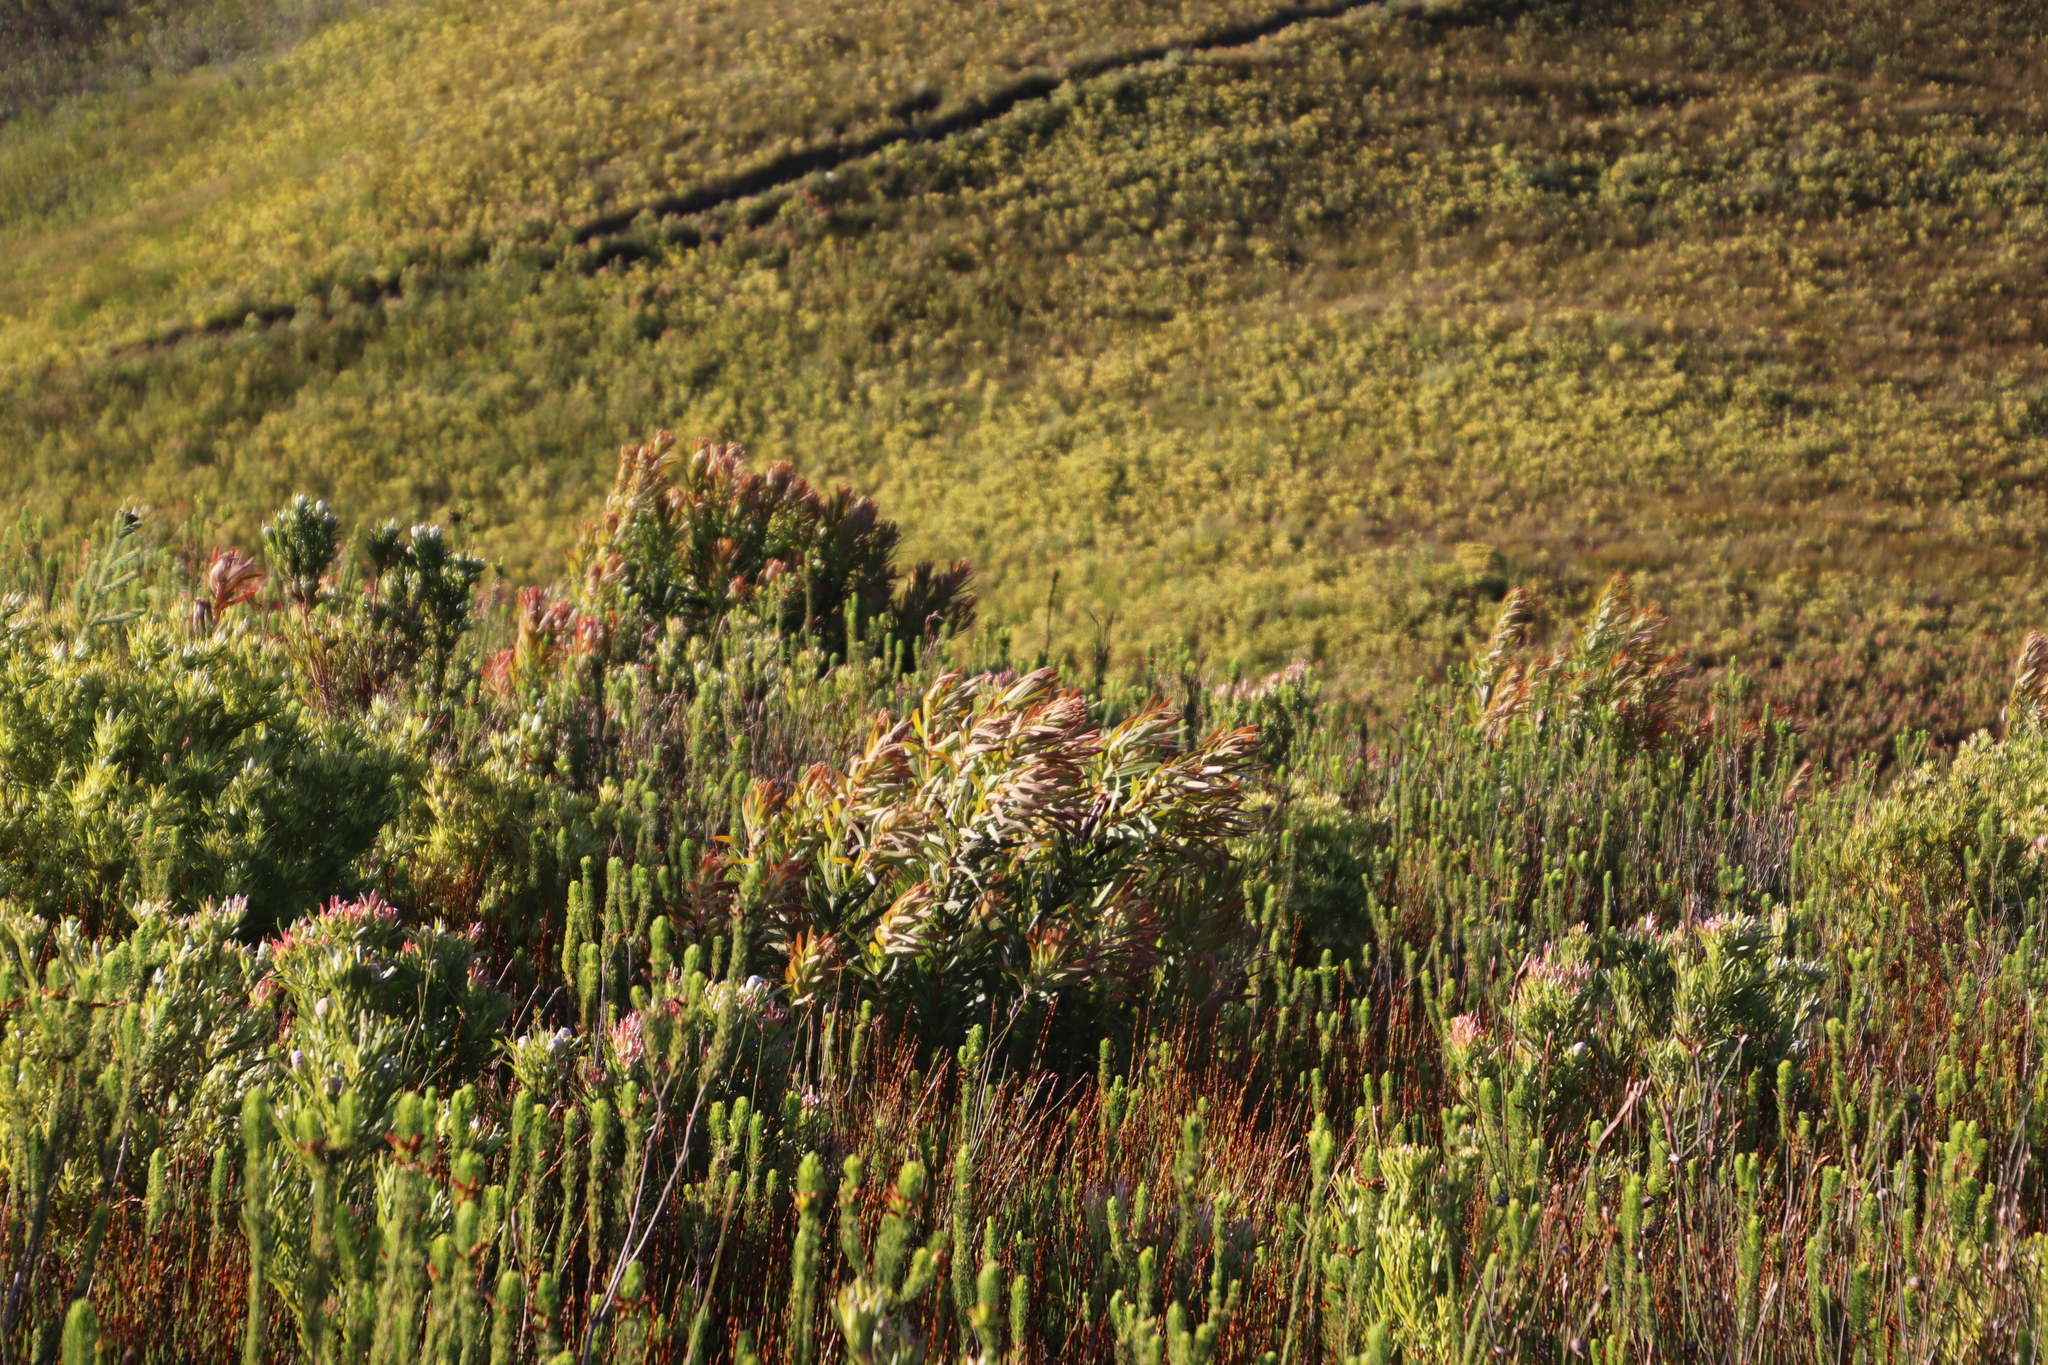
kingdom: Plantae
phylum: Tracheophyta
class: Magnoliopsida
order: Proteales
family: Proteaceae
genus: Protea
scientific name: Protea lepidocarpodendron
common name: Black-bearded protea
